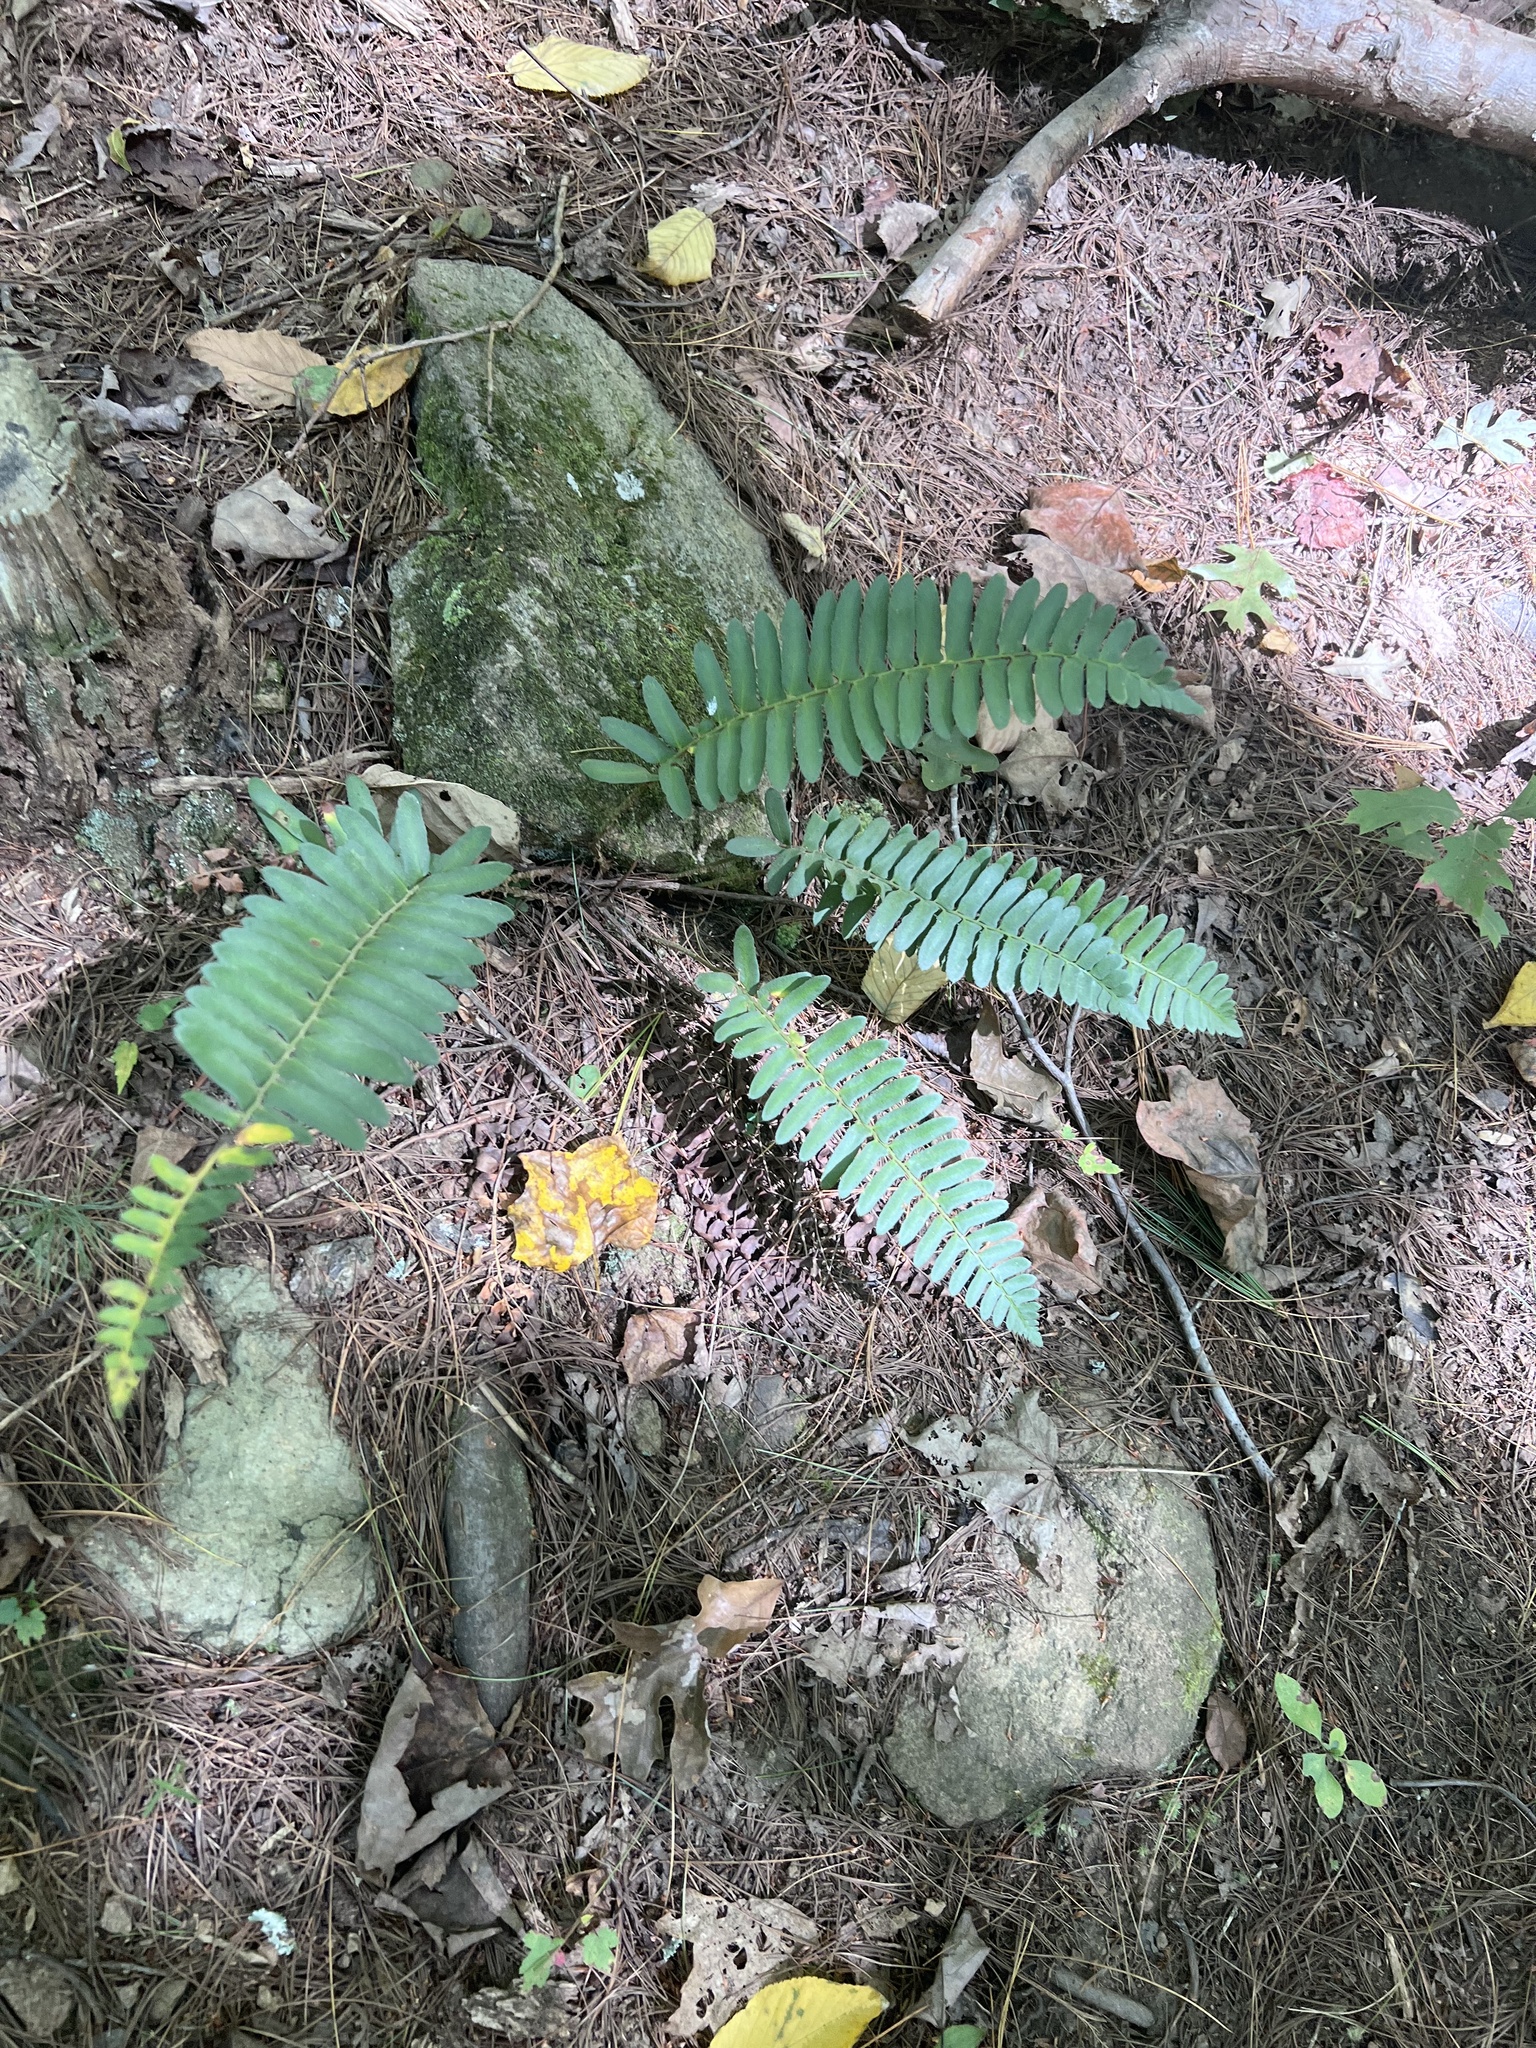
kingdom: Plantae
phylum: Tracheophyta
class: Polypodiopsida
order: Polypodiales
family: Dryopteridaceae
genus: Polystichum
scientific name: Polystichum acrostichoides
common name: Christmas fern
